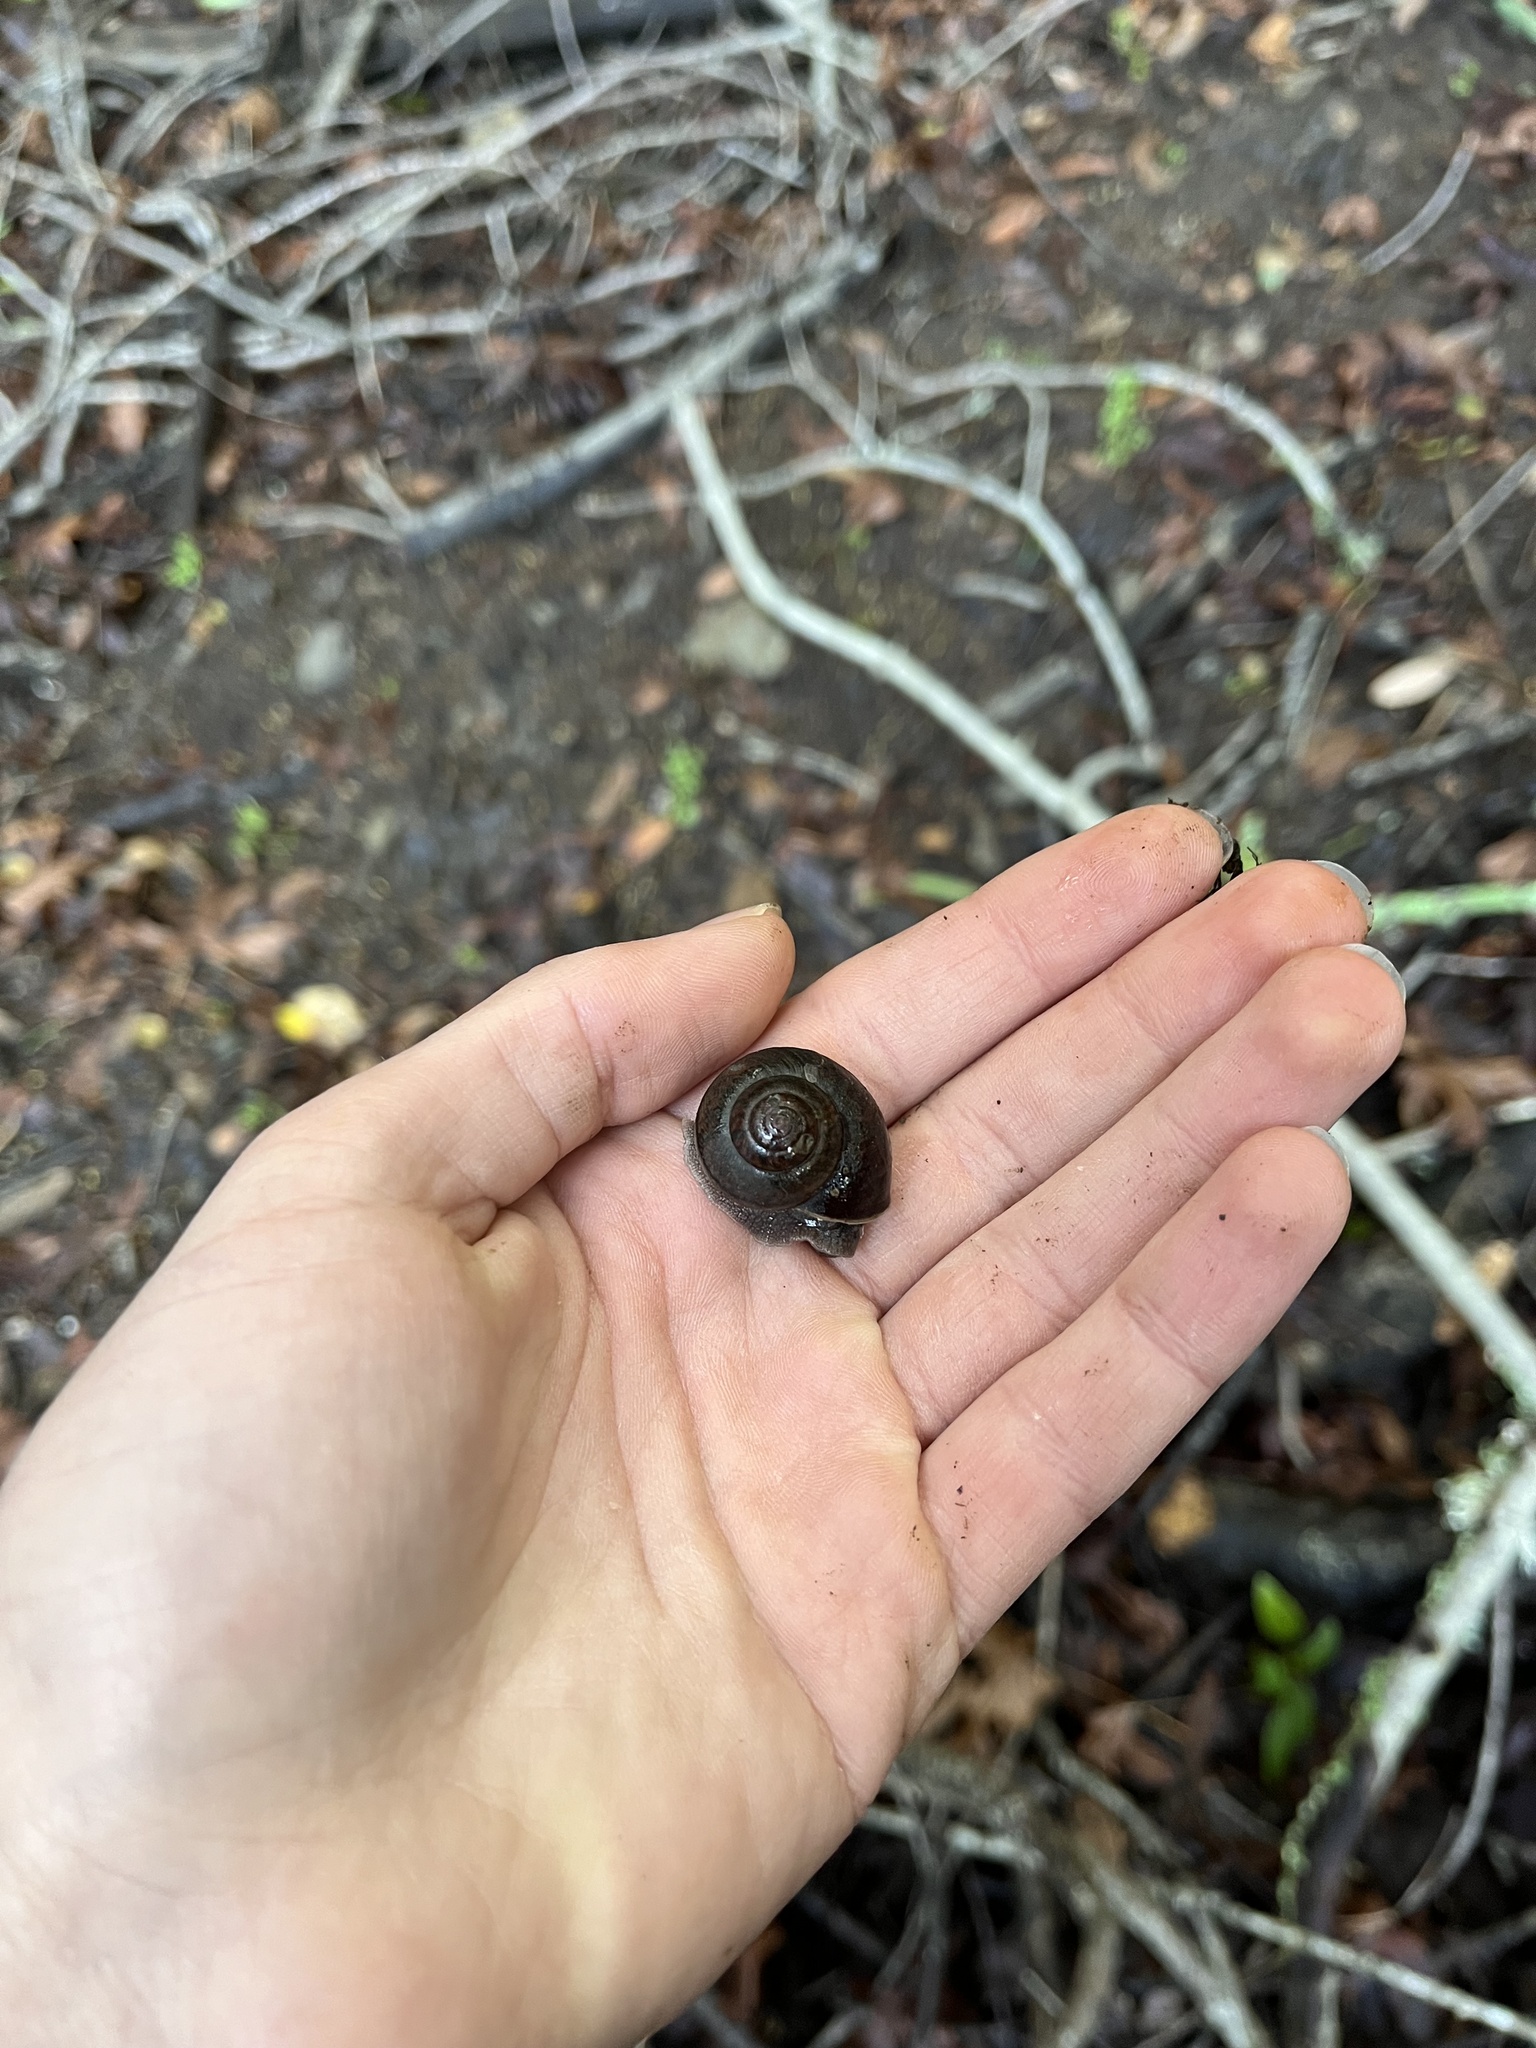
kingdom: Animalia
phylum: Mollusca
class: Gastropoda
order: Stylommatophora
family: Xanthonychidae
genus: Helminthoglypta
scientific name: Helminthoglypta nickliniana
